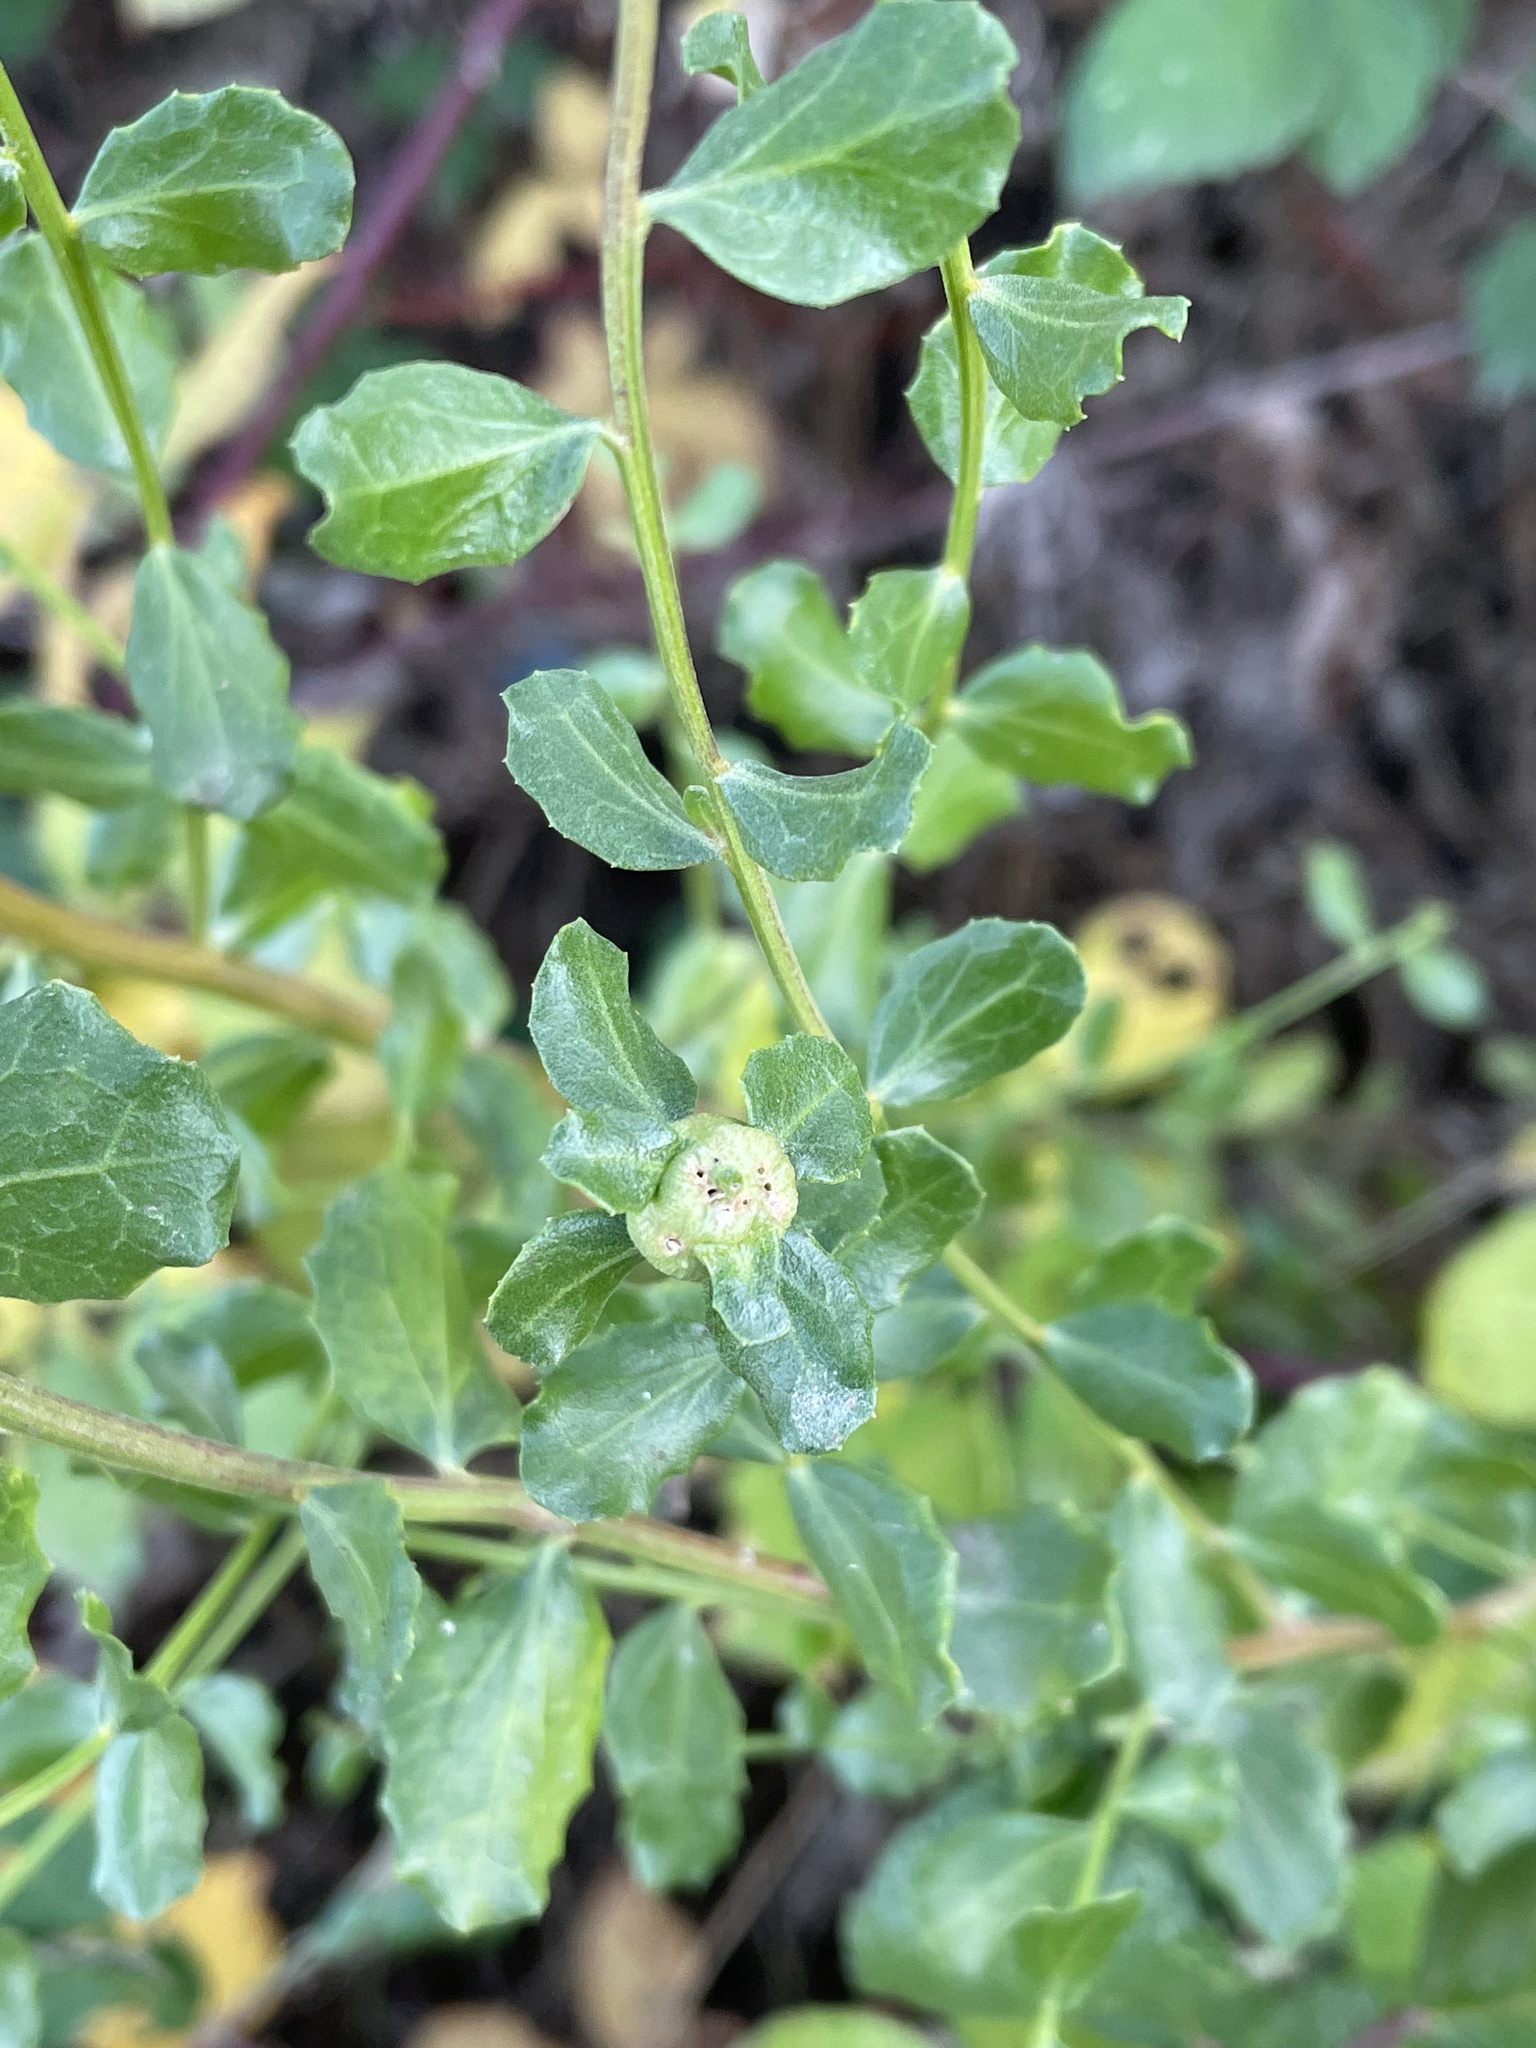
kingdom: Plantae
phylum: Tracheophyta
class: Magnoliopsida
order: Asterales
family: Asteraceae
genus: Baccharis
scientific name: Baccharis pilularis
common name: Coyotebrush
